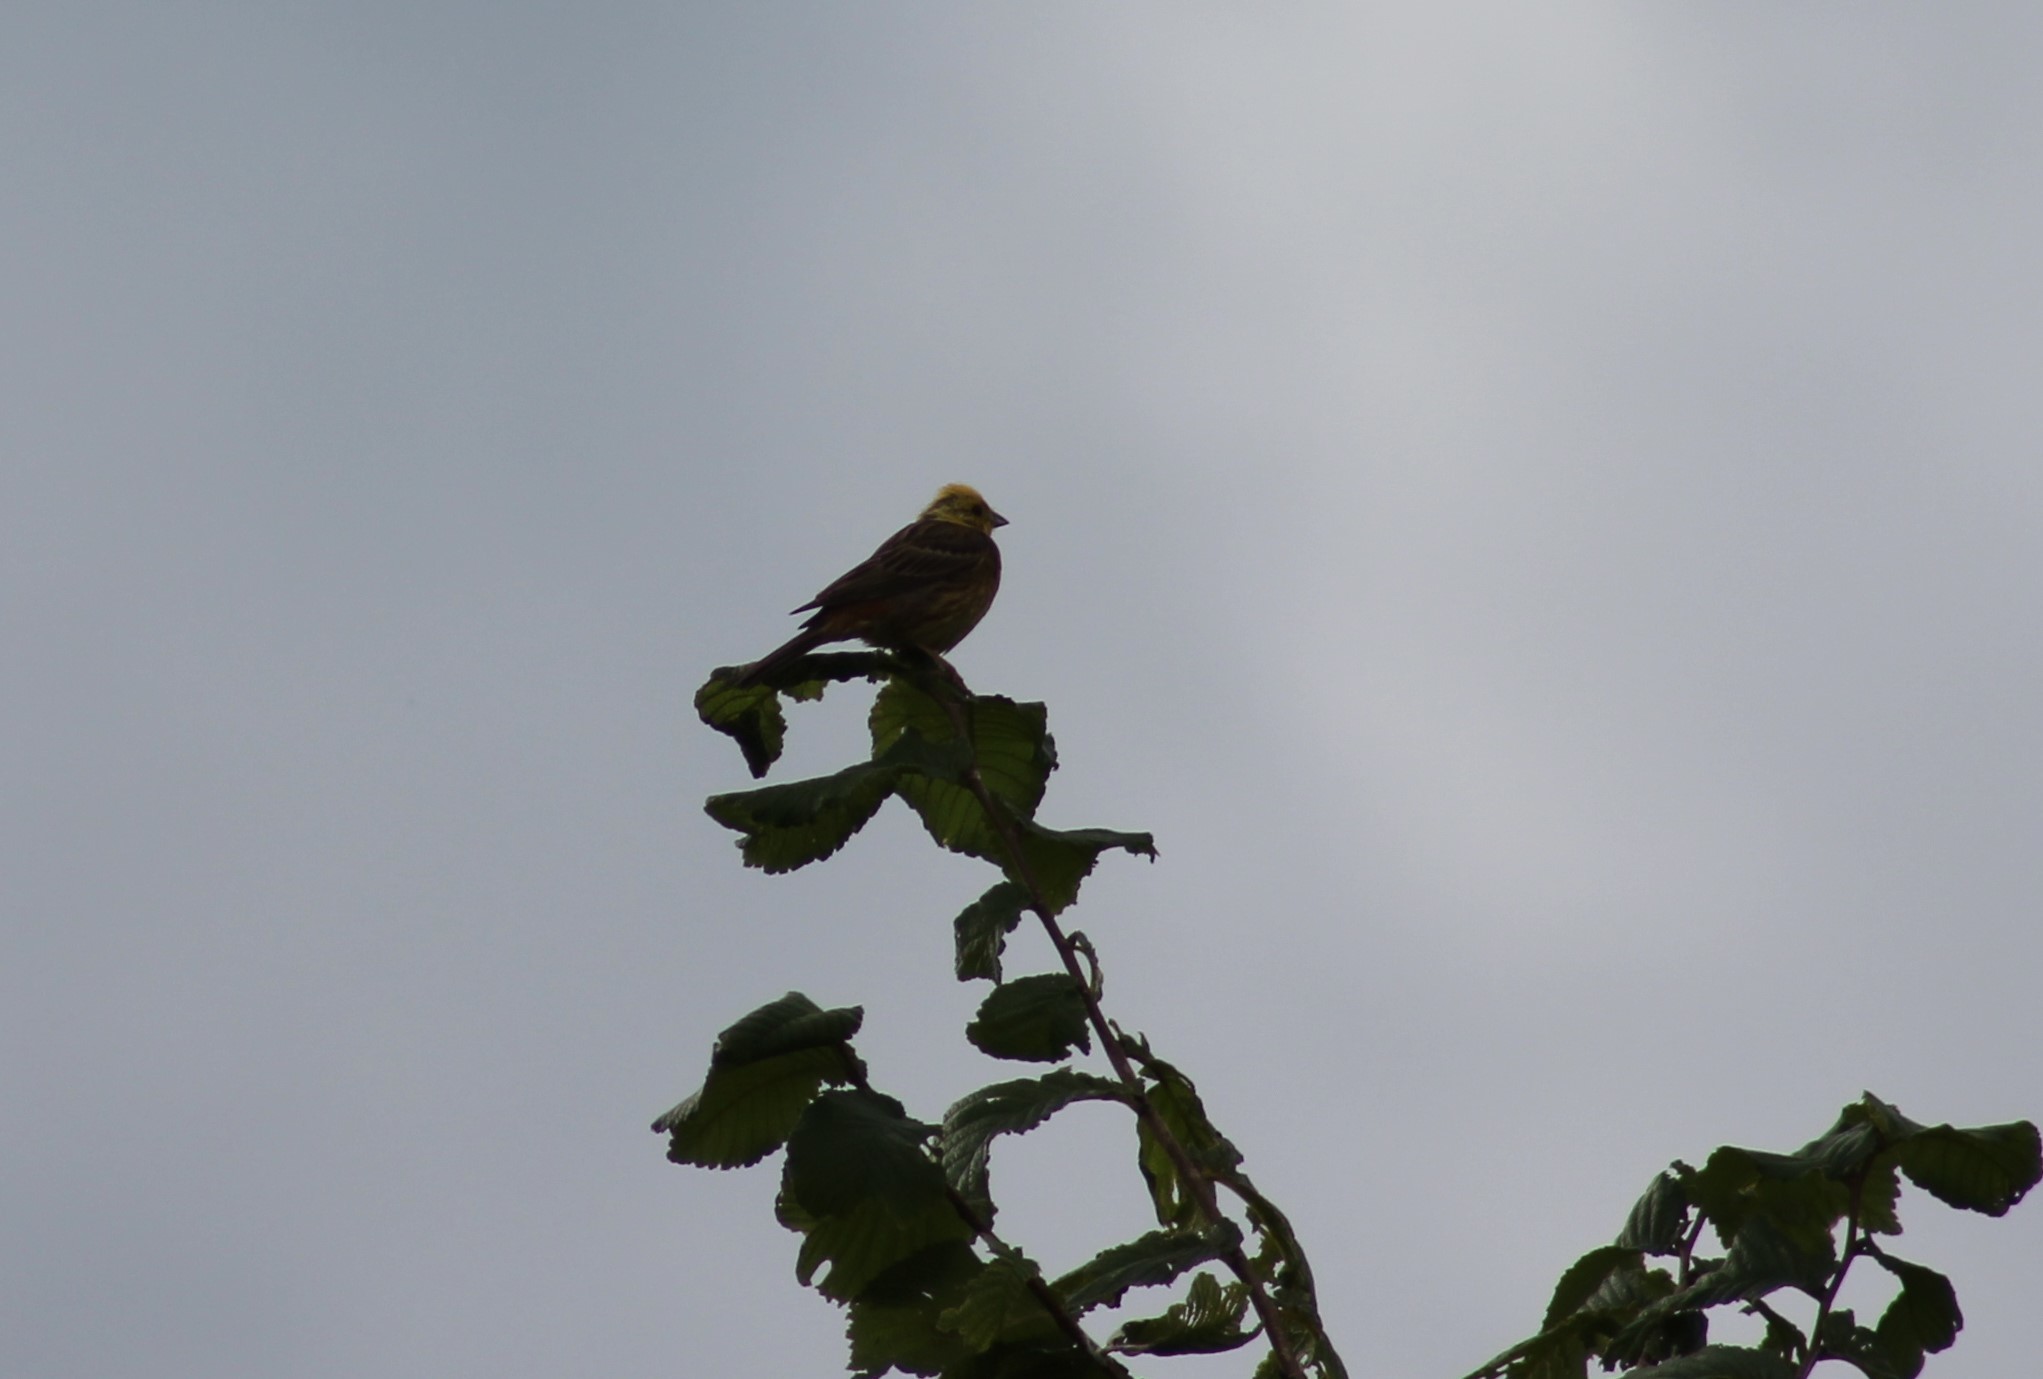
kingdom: Animalia
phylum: Chordata
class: Aves
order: Passeriformes
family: Emberizidae
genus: Emberiza
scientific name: Emberiza citrinella
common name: Yellowhammer
